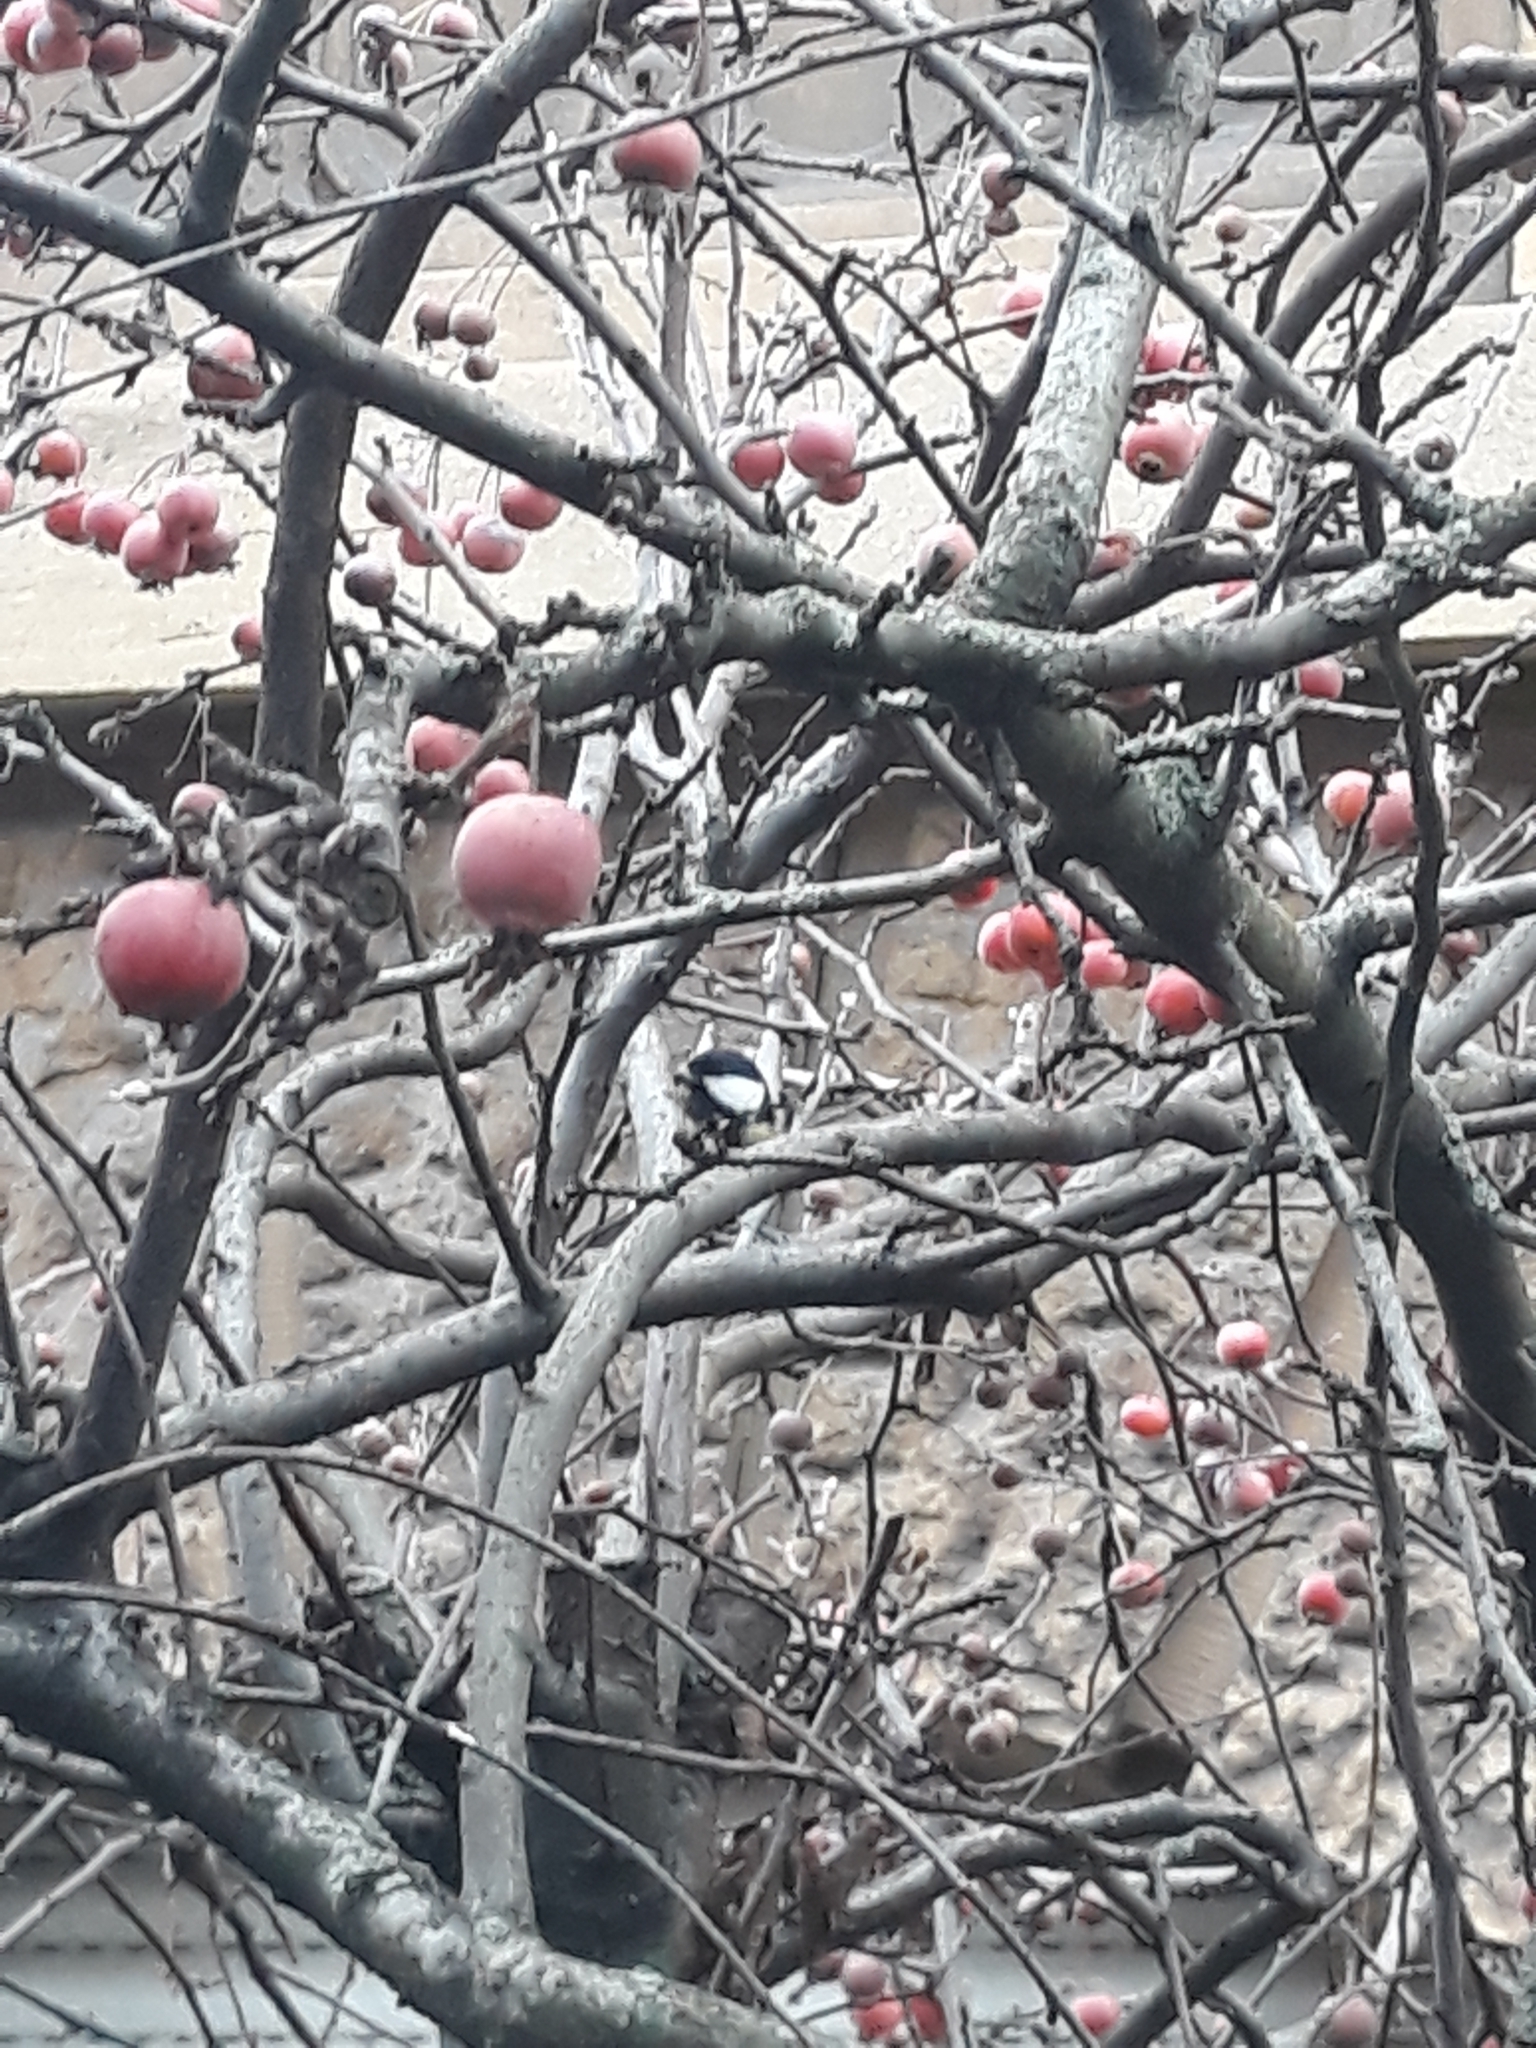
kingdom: Animalia
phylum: Chordata
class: Aves
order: Passeriformes
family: Paridae
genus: Parus
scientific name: Parus major
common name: Great tit
